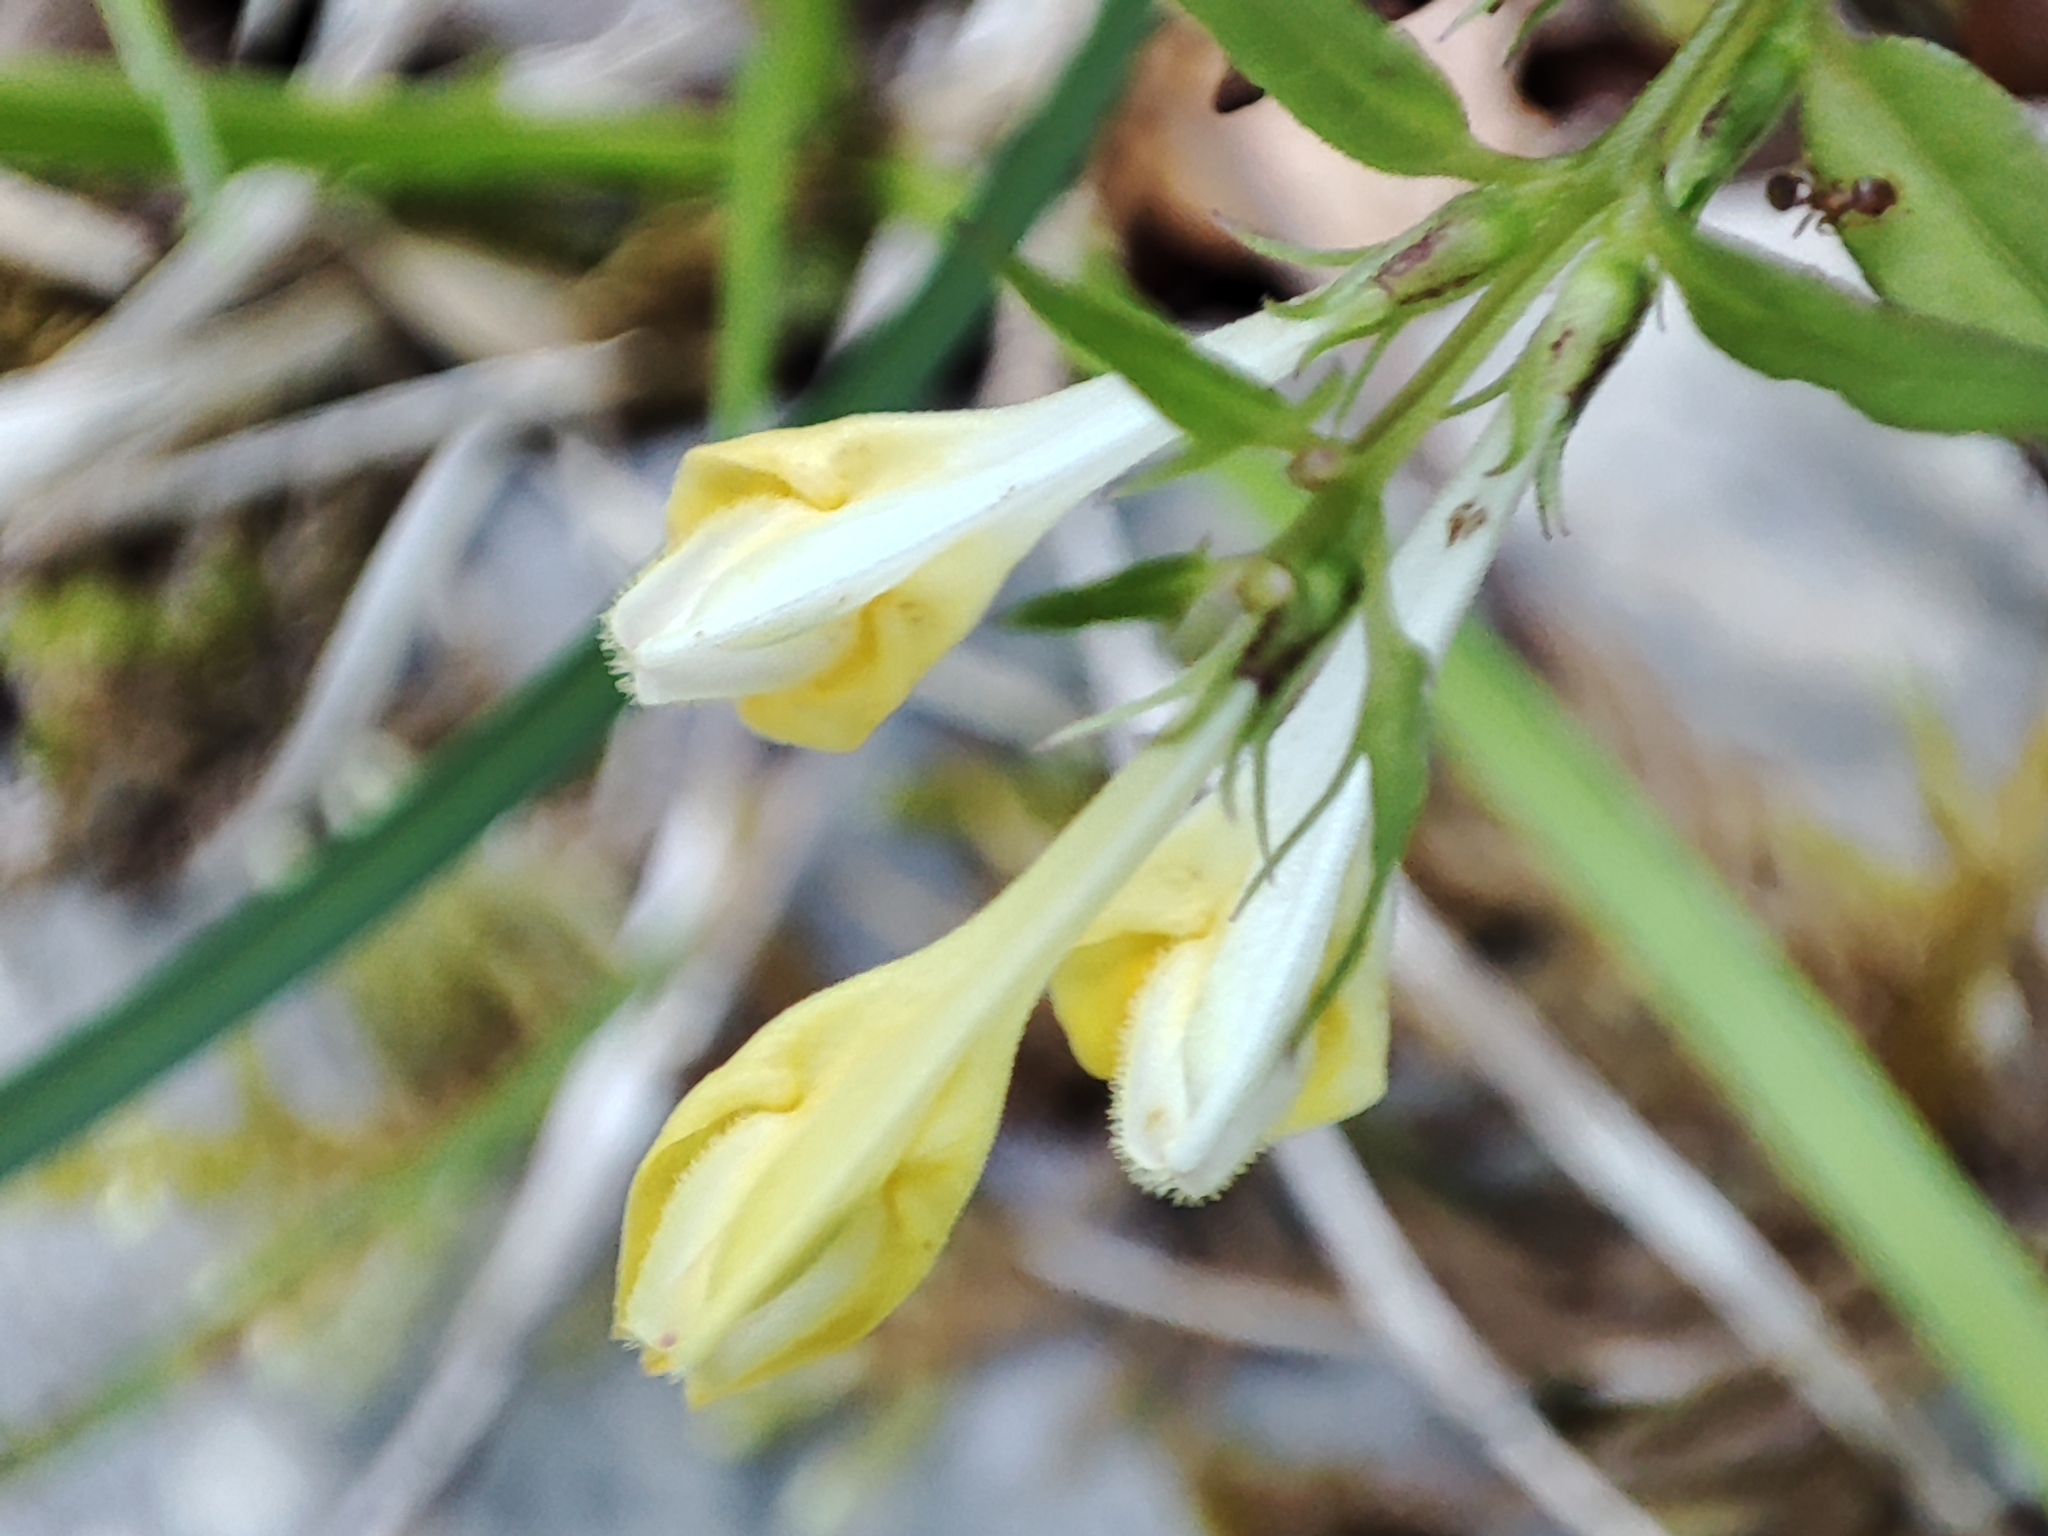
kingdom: Plantae
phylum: Tracheophyta
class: Magnoliopsida
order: Lamiales
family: Orobanchaceae
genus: Melampyrum
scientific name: Melampyrum pratense
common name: Common cow-wheat
